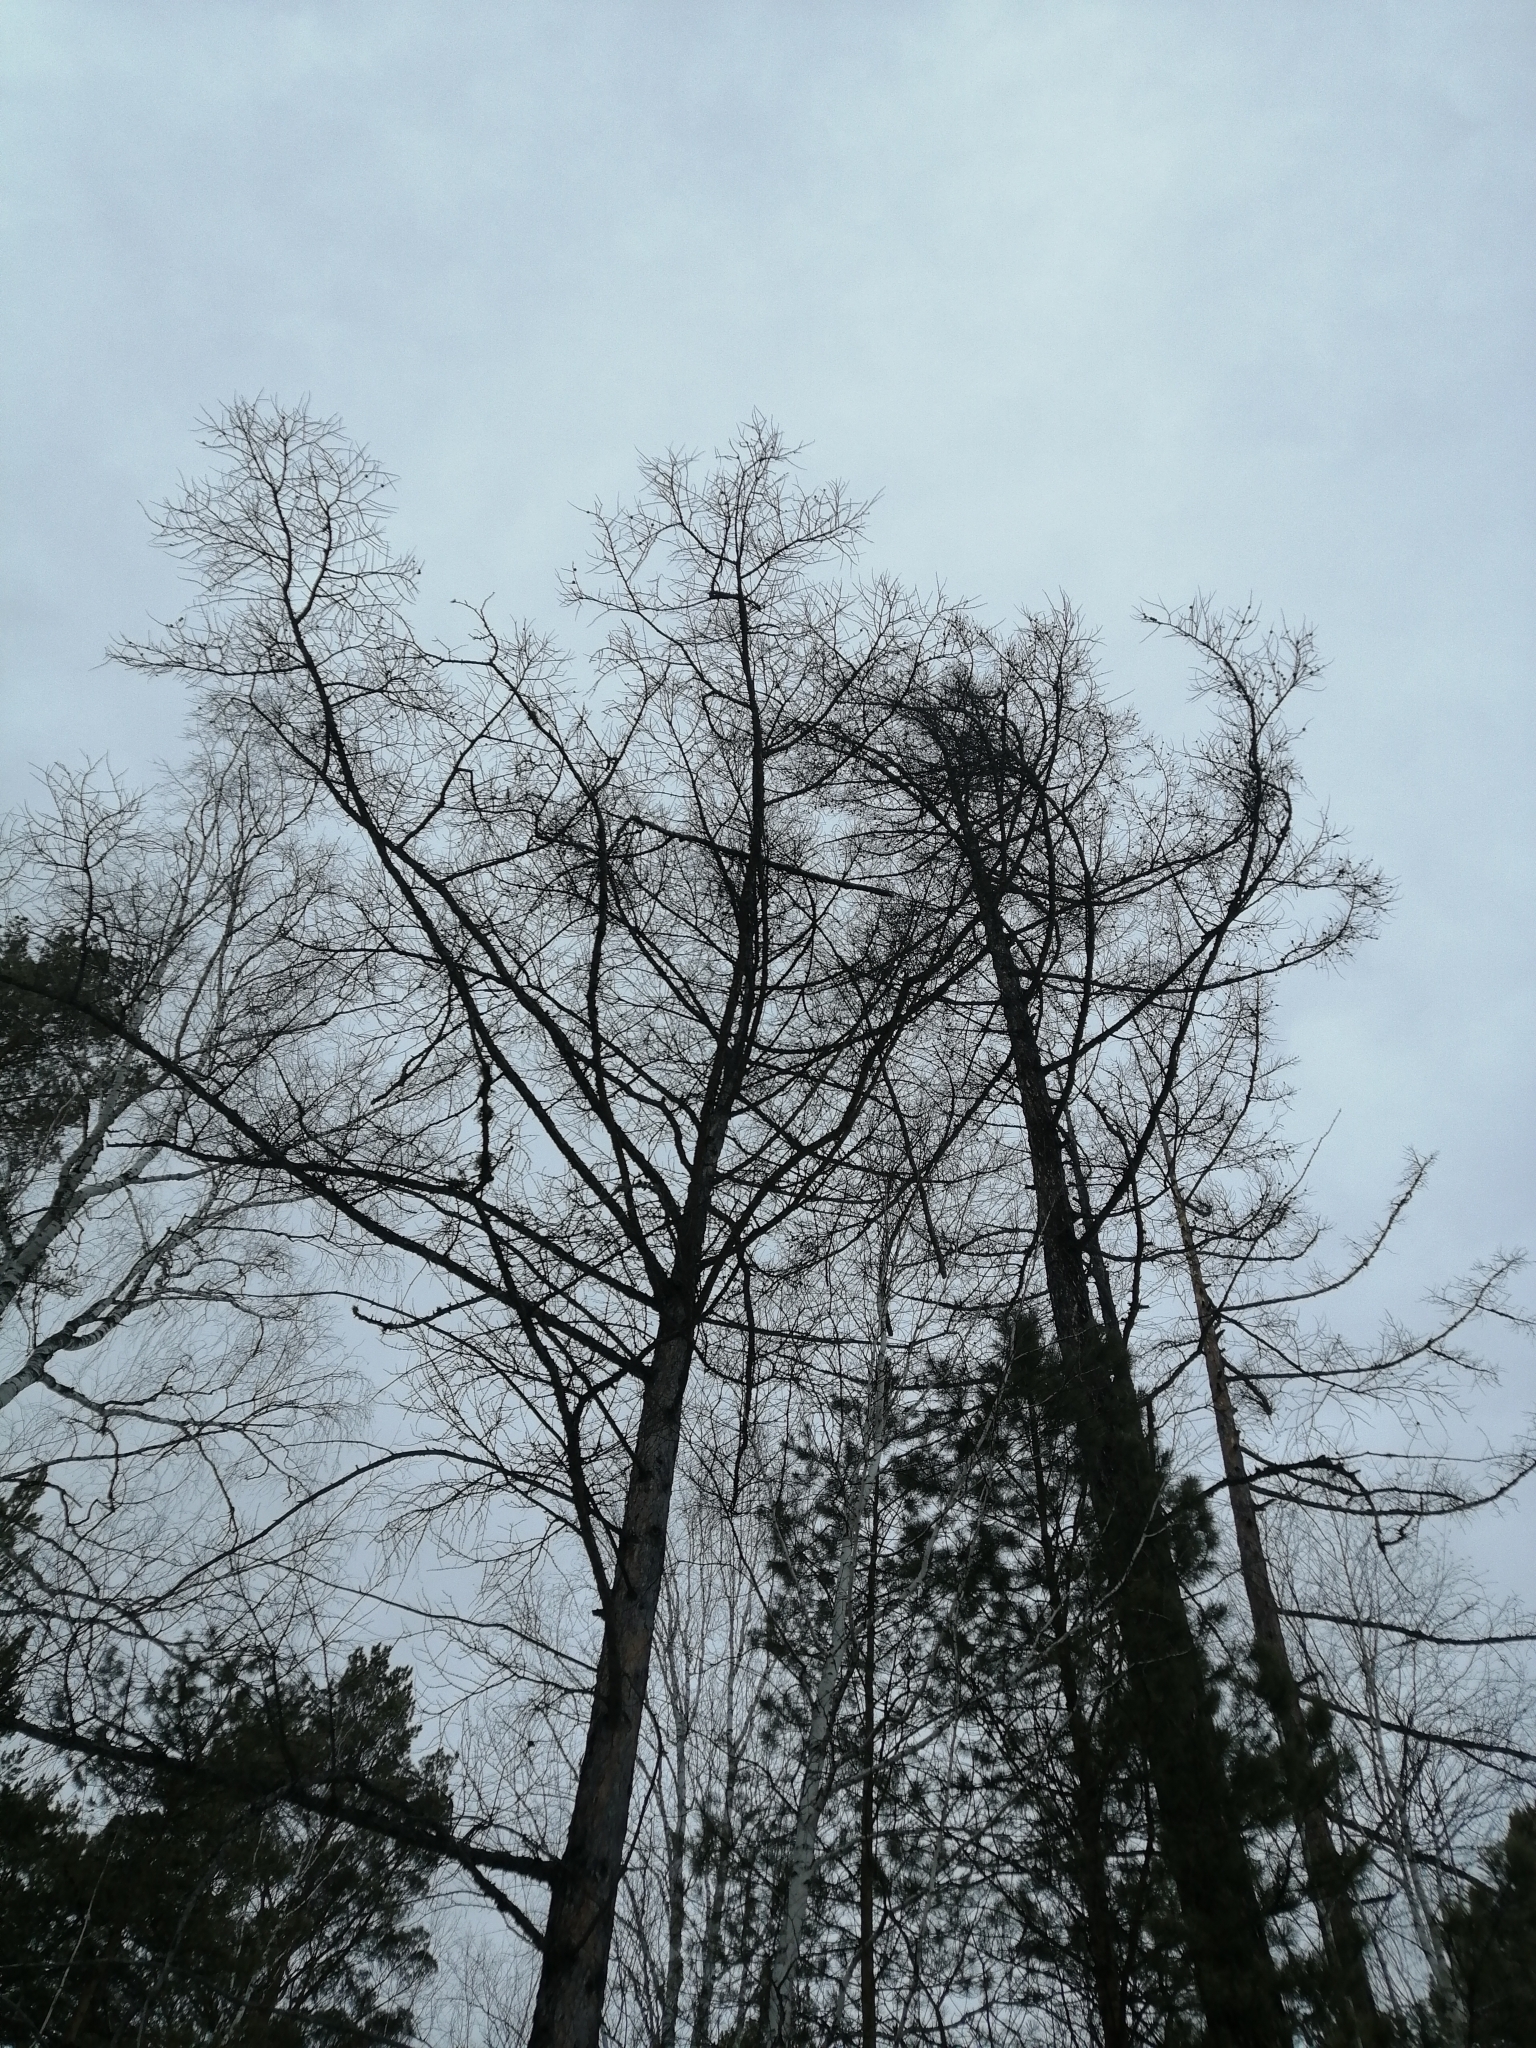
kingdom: Plantae
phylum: Tracheophyta
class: Pinopsida
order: Pinales
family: Pinaceae
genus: Larix
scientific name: Larix sibirica
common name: Siberian larch
